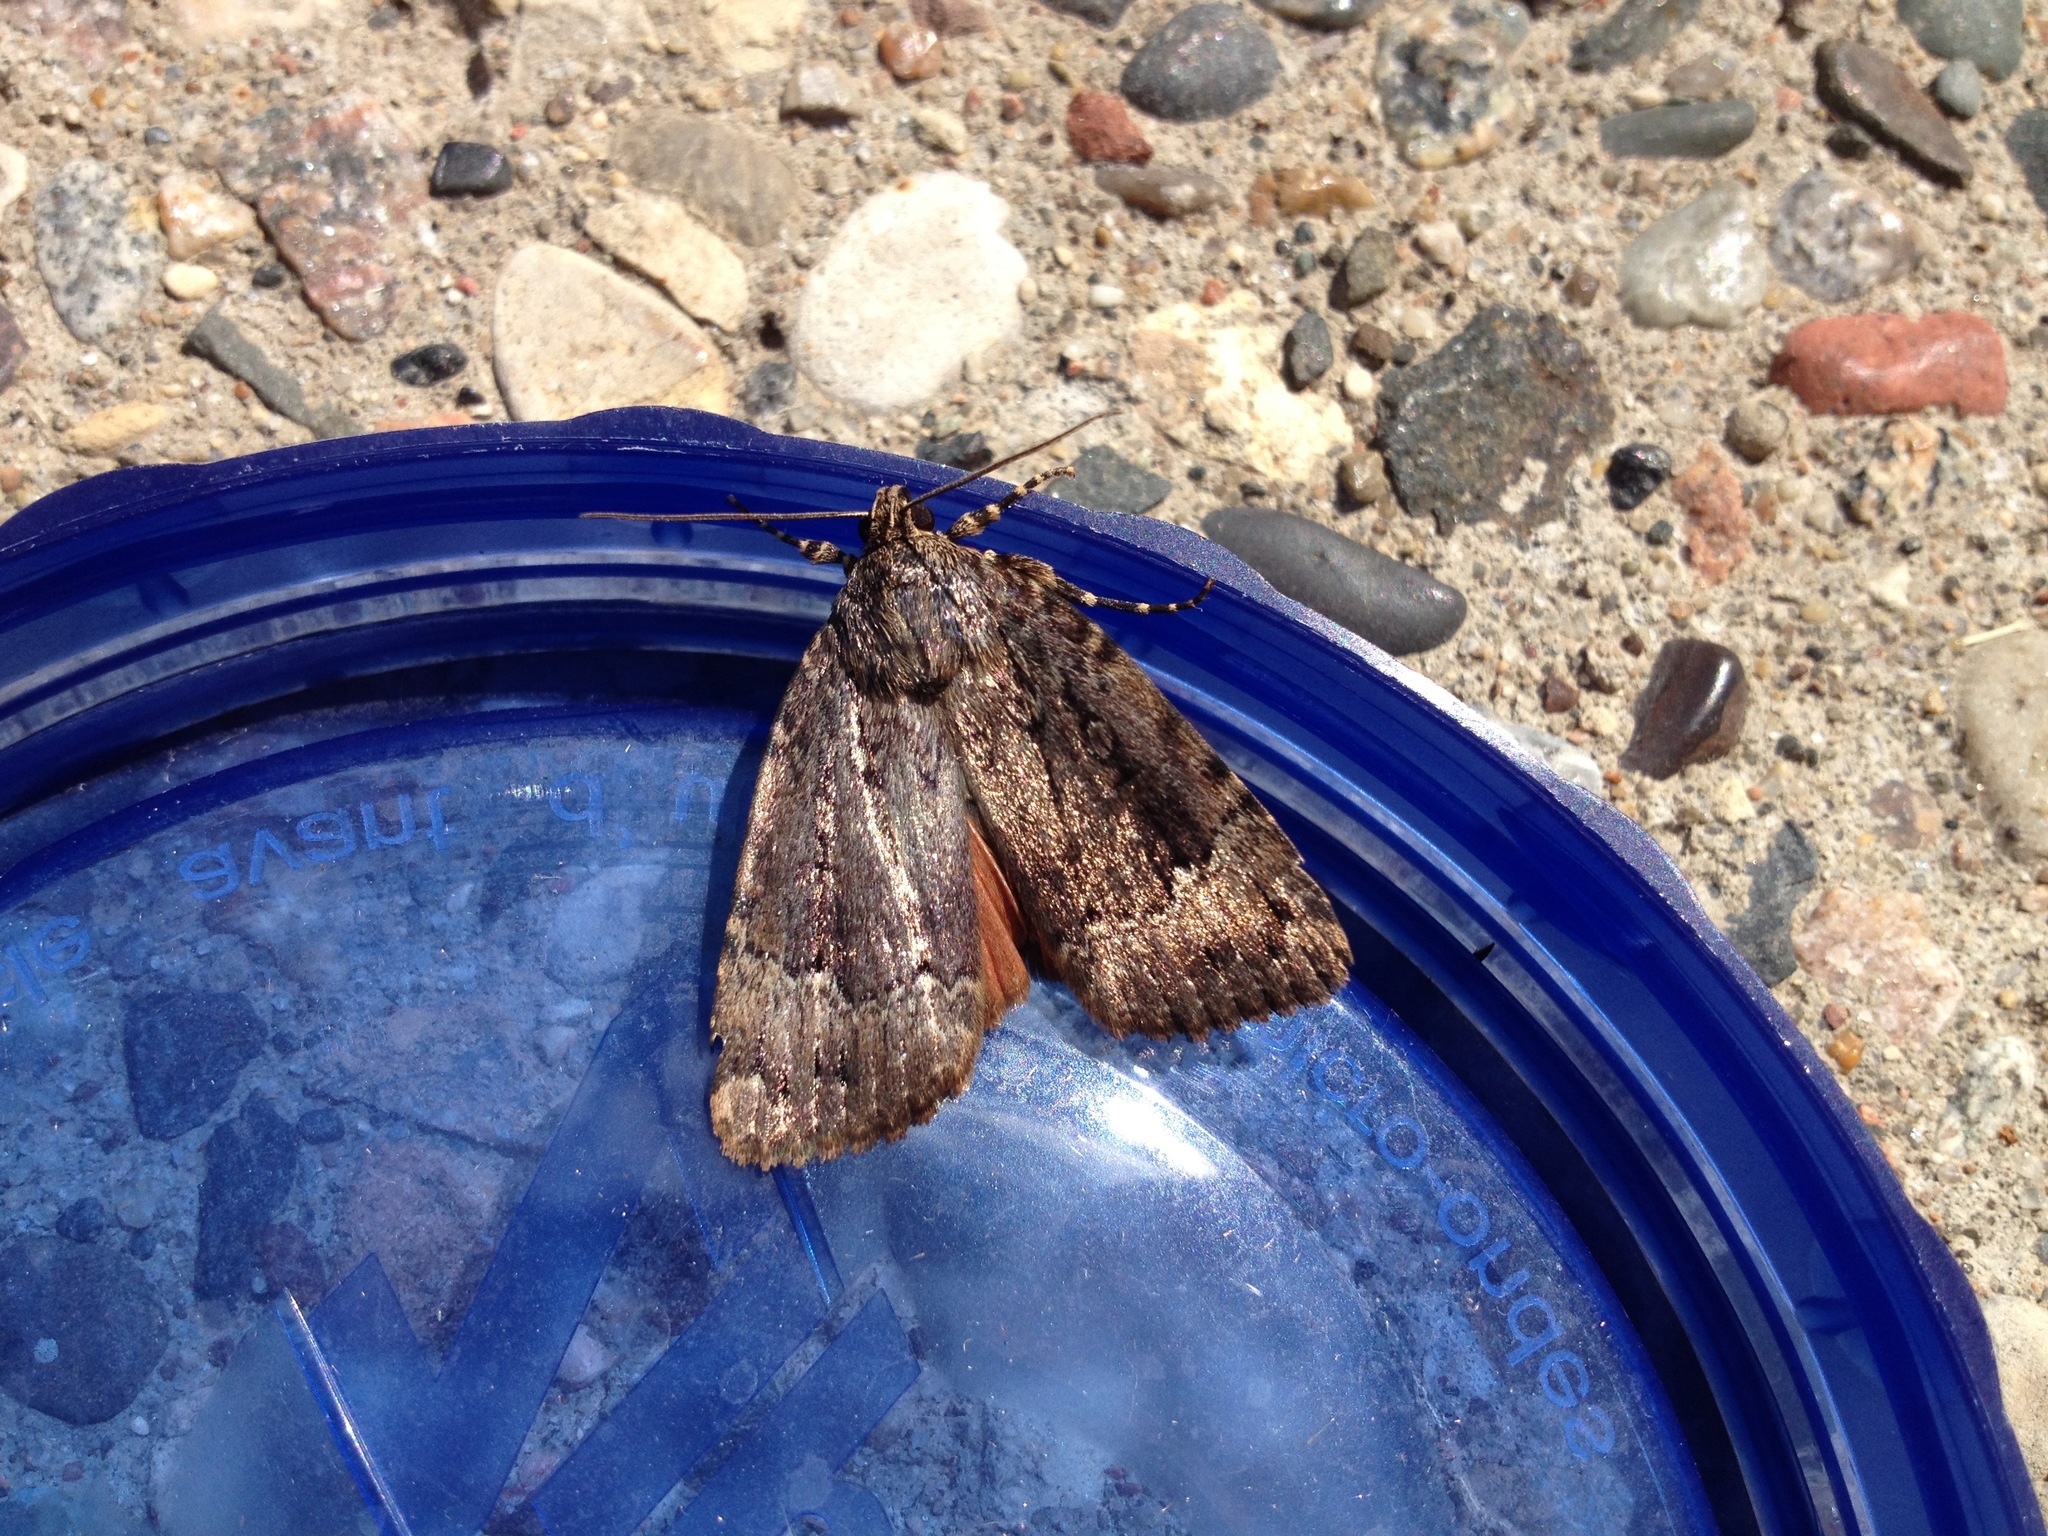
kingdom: Animalia
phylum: Arthropoda
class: Insecta
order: Lepidoptera
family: Noctuidae
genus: Amphipyra
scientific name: Amphipyra pyramidoides
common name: American copper underwing
